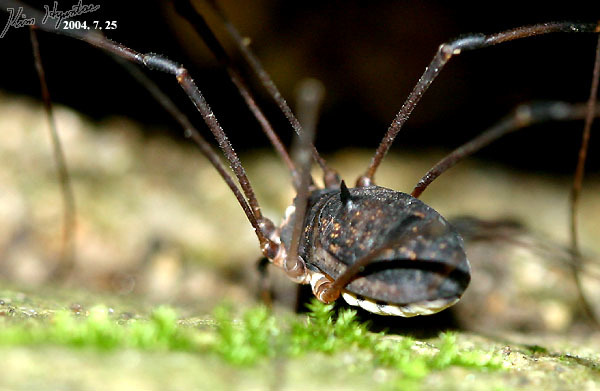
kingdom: Animalia
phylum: Arthropoda
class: Arachnida
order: Opiliones
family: Sclerosomatidae
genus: Thunbergia
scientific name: Thunbergia grandis
